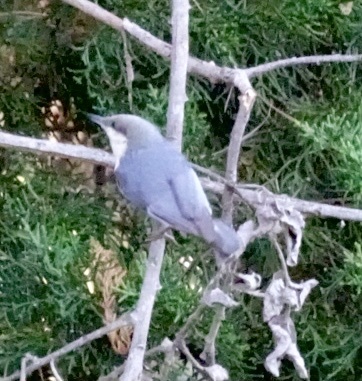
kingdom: Animalia
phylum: Chordata
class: Aves
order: Passeriformes
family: Sittidae
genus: Sitta
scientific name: Sitta pygmaea
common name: Pygmy nuthatch
